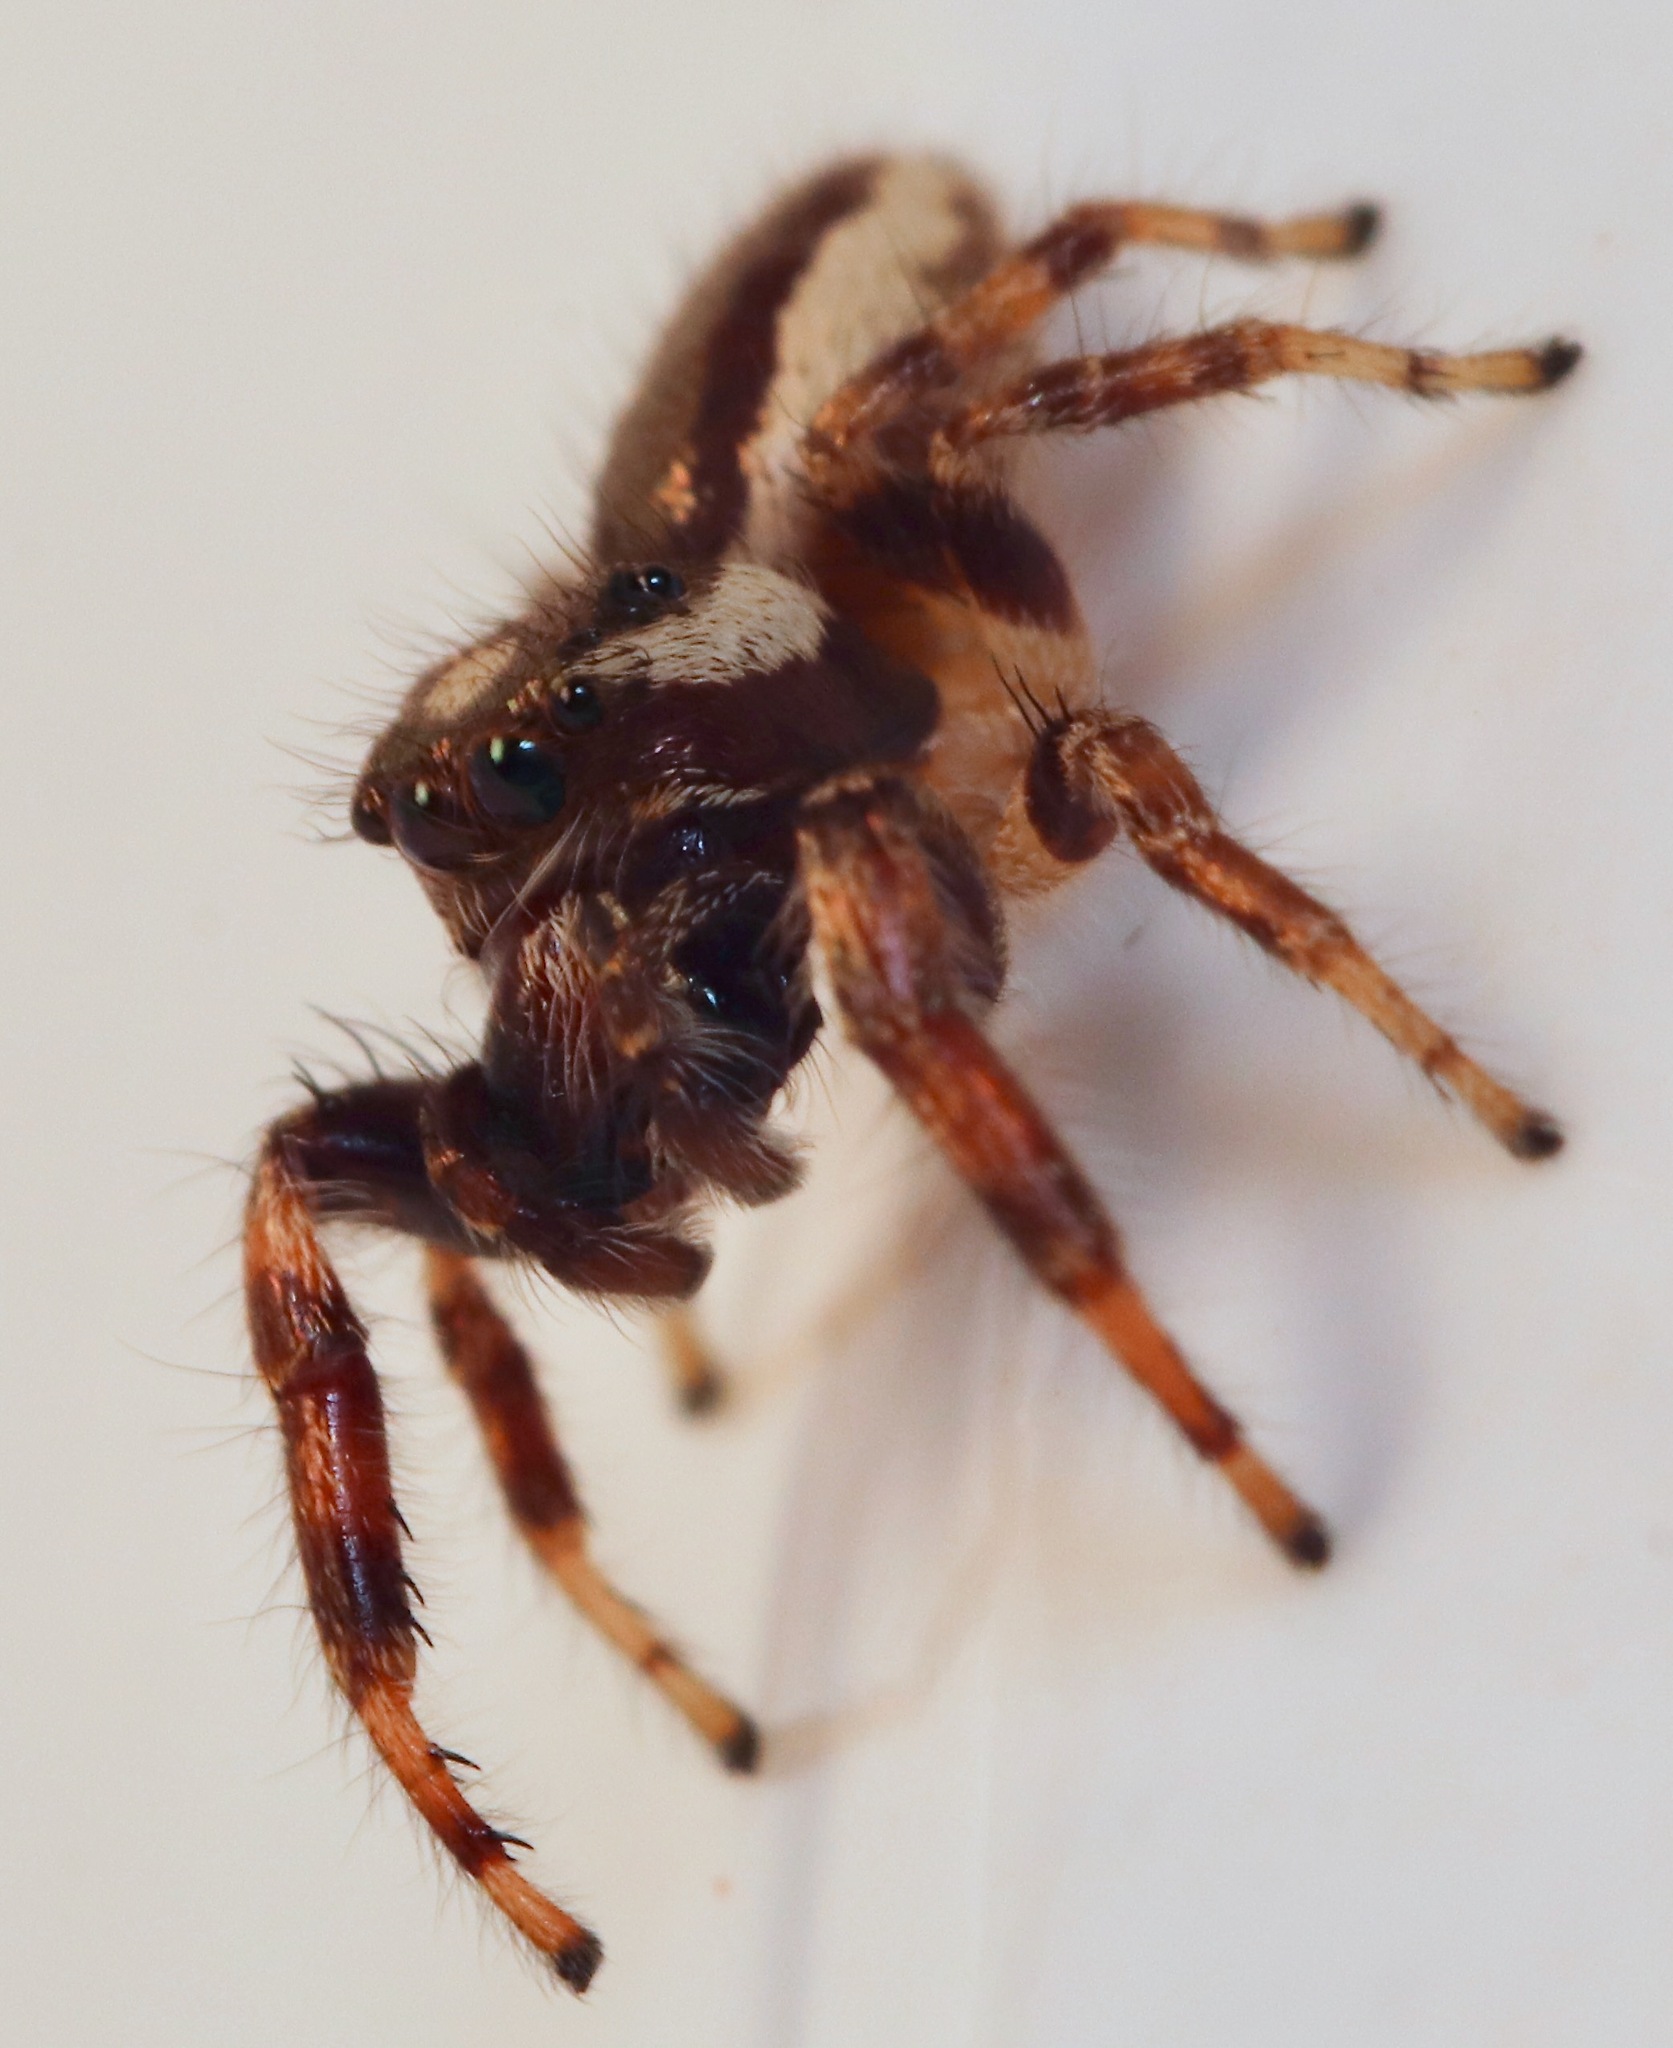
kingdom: Animalia
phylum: Arthropoda
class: Arachnida
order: Araneae
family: Salticidae
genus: Eris
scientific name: Eris militaris
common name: Bronze jumper
